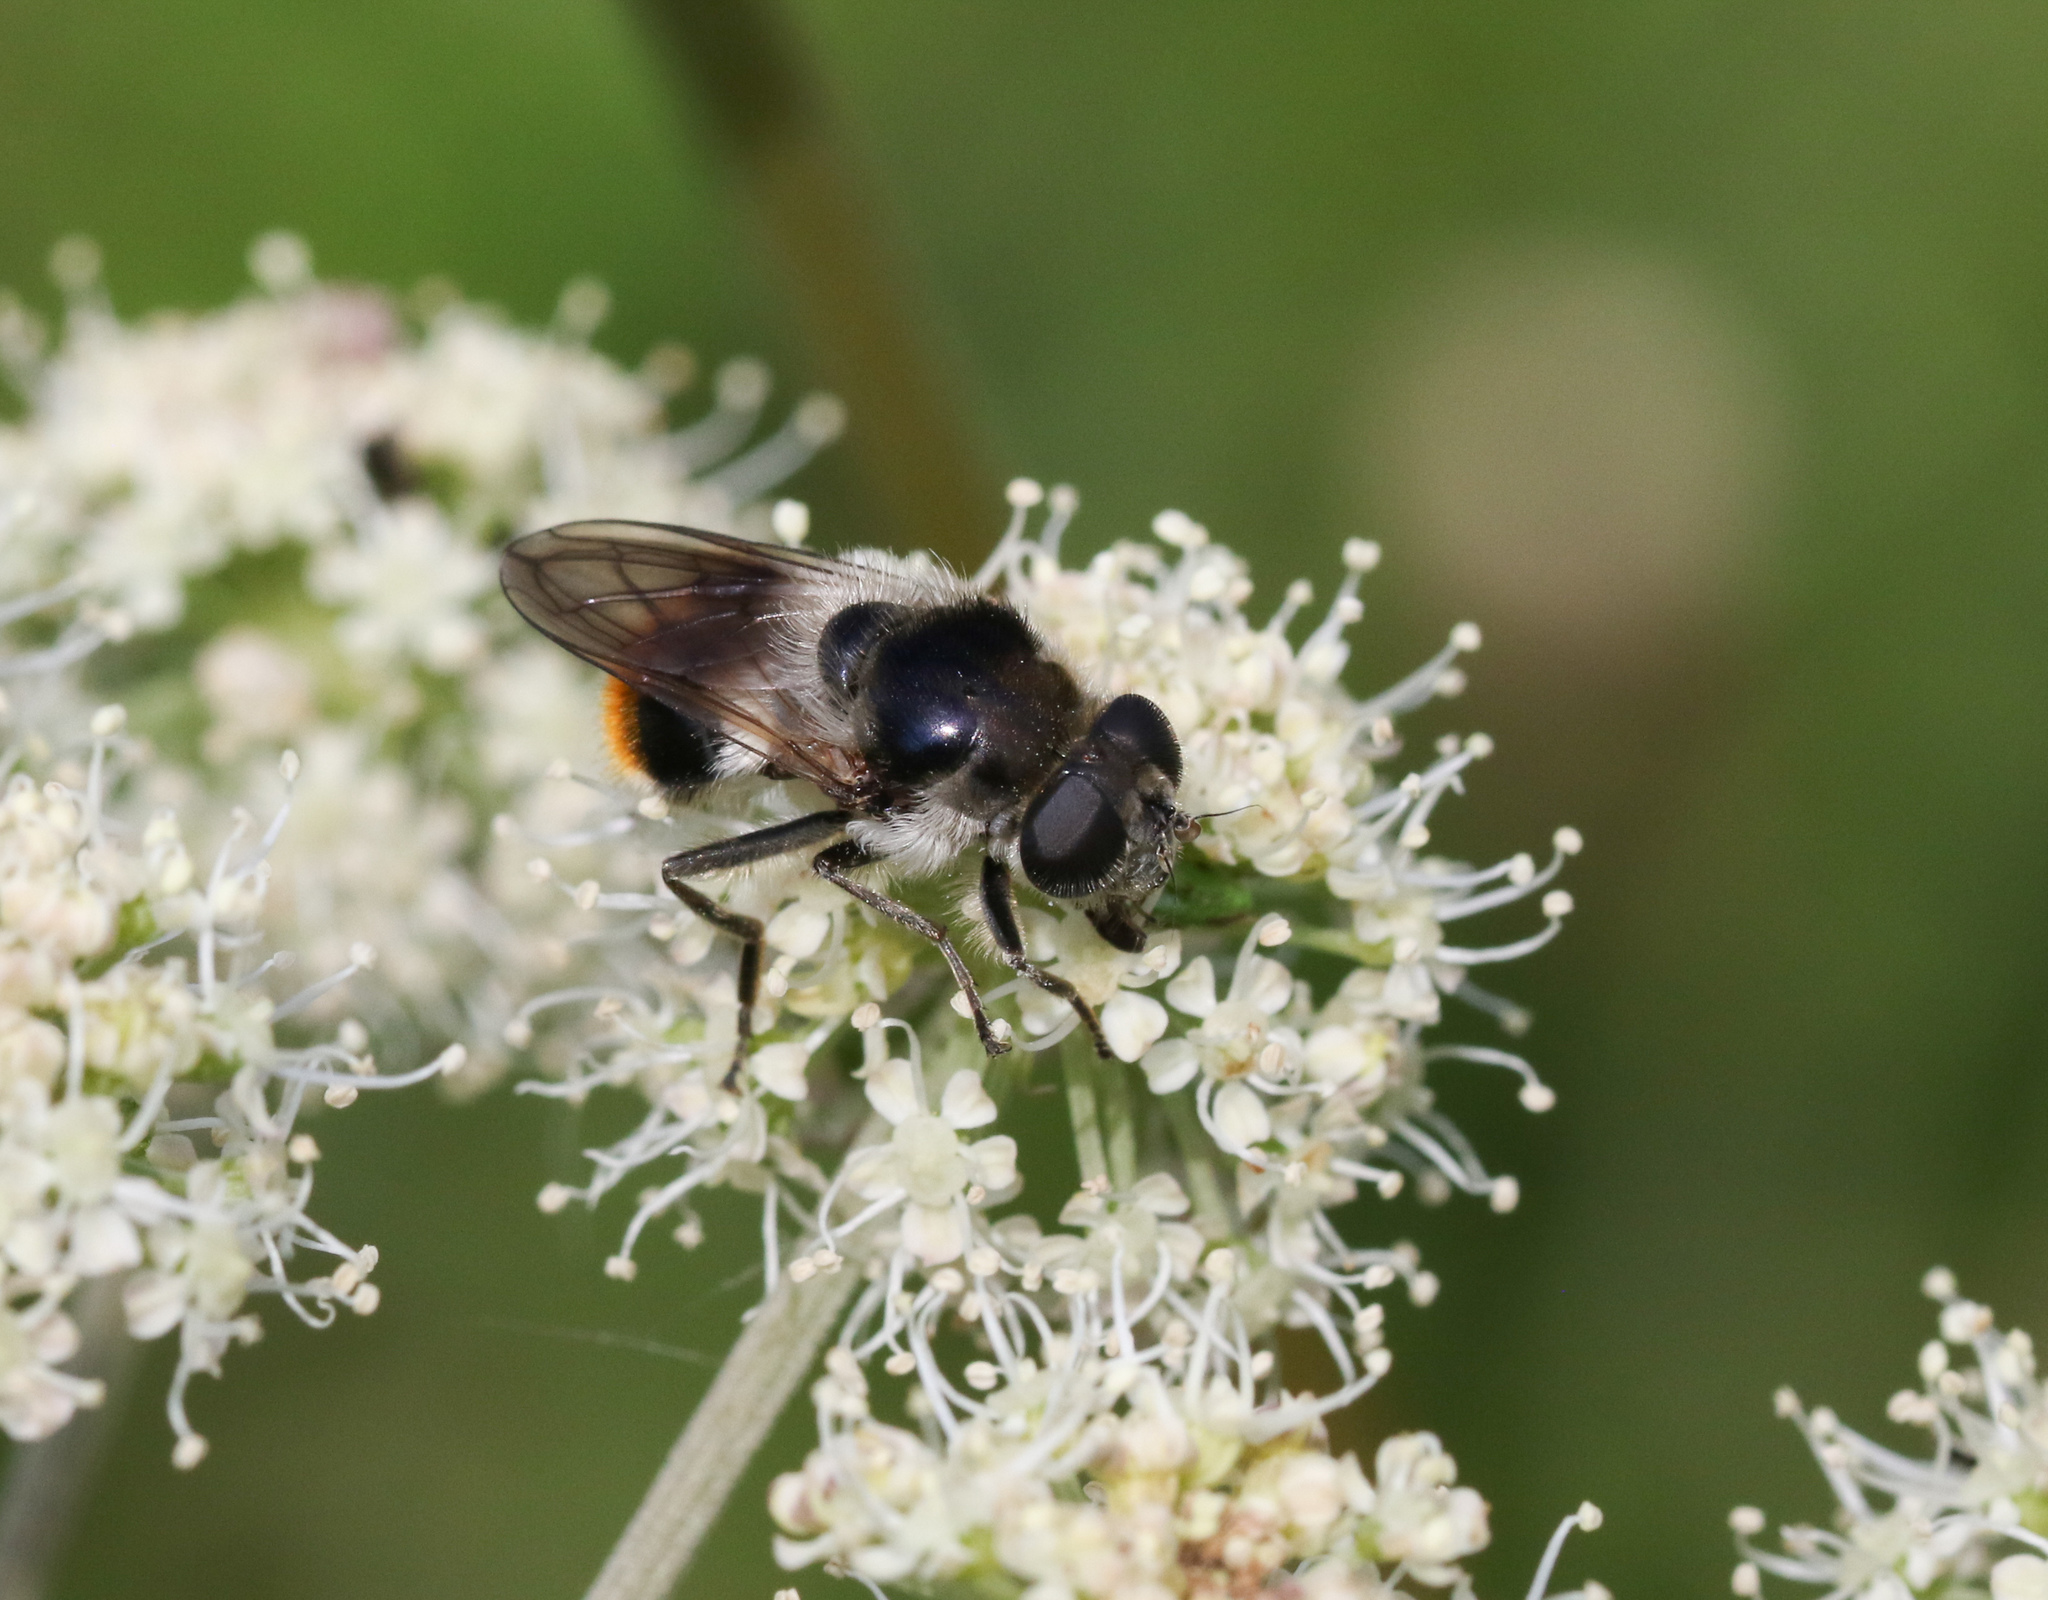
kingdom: Animalia
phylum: Arthropoda
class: Insecta
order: Diptera
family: Syrphidae
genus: Cheilosia
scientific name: Cheilosia illustrata
